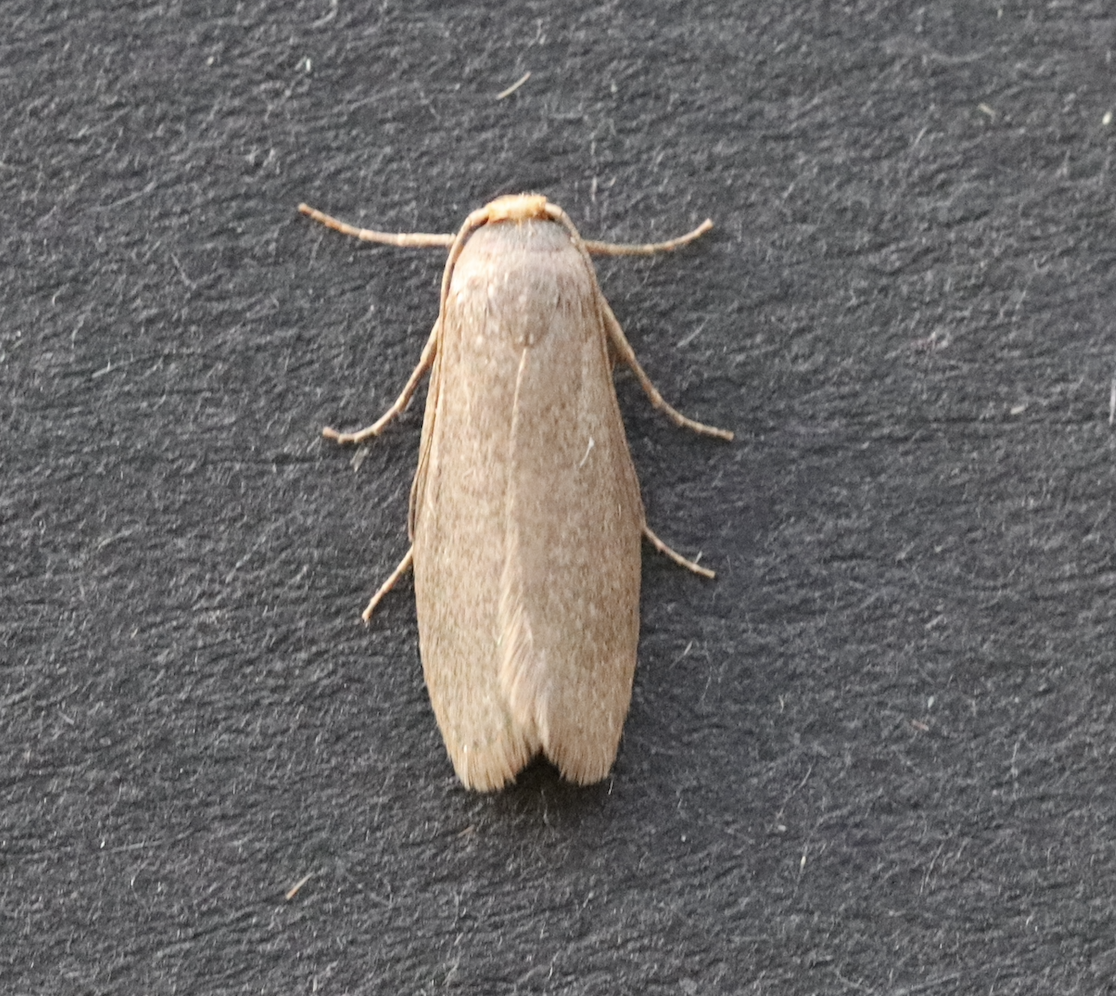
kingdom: Animalia
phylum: Arthropoda
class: Insecta
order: Lepidoptera
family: Pyralidae
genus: Achroia
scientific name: Achroia grisella
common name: Lesser wax moth
